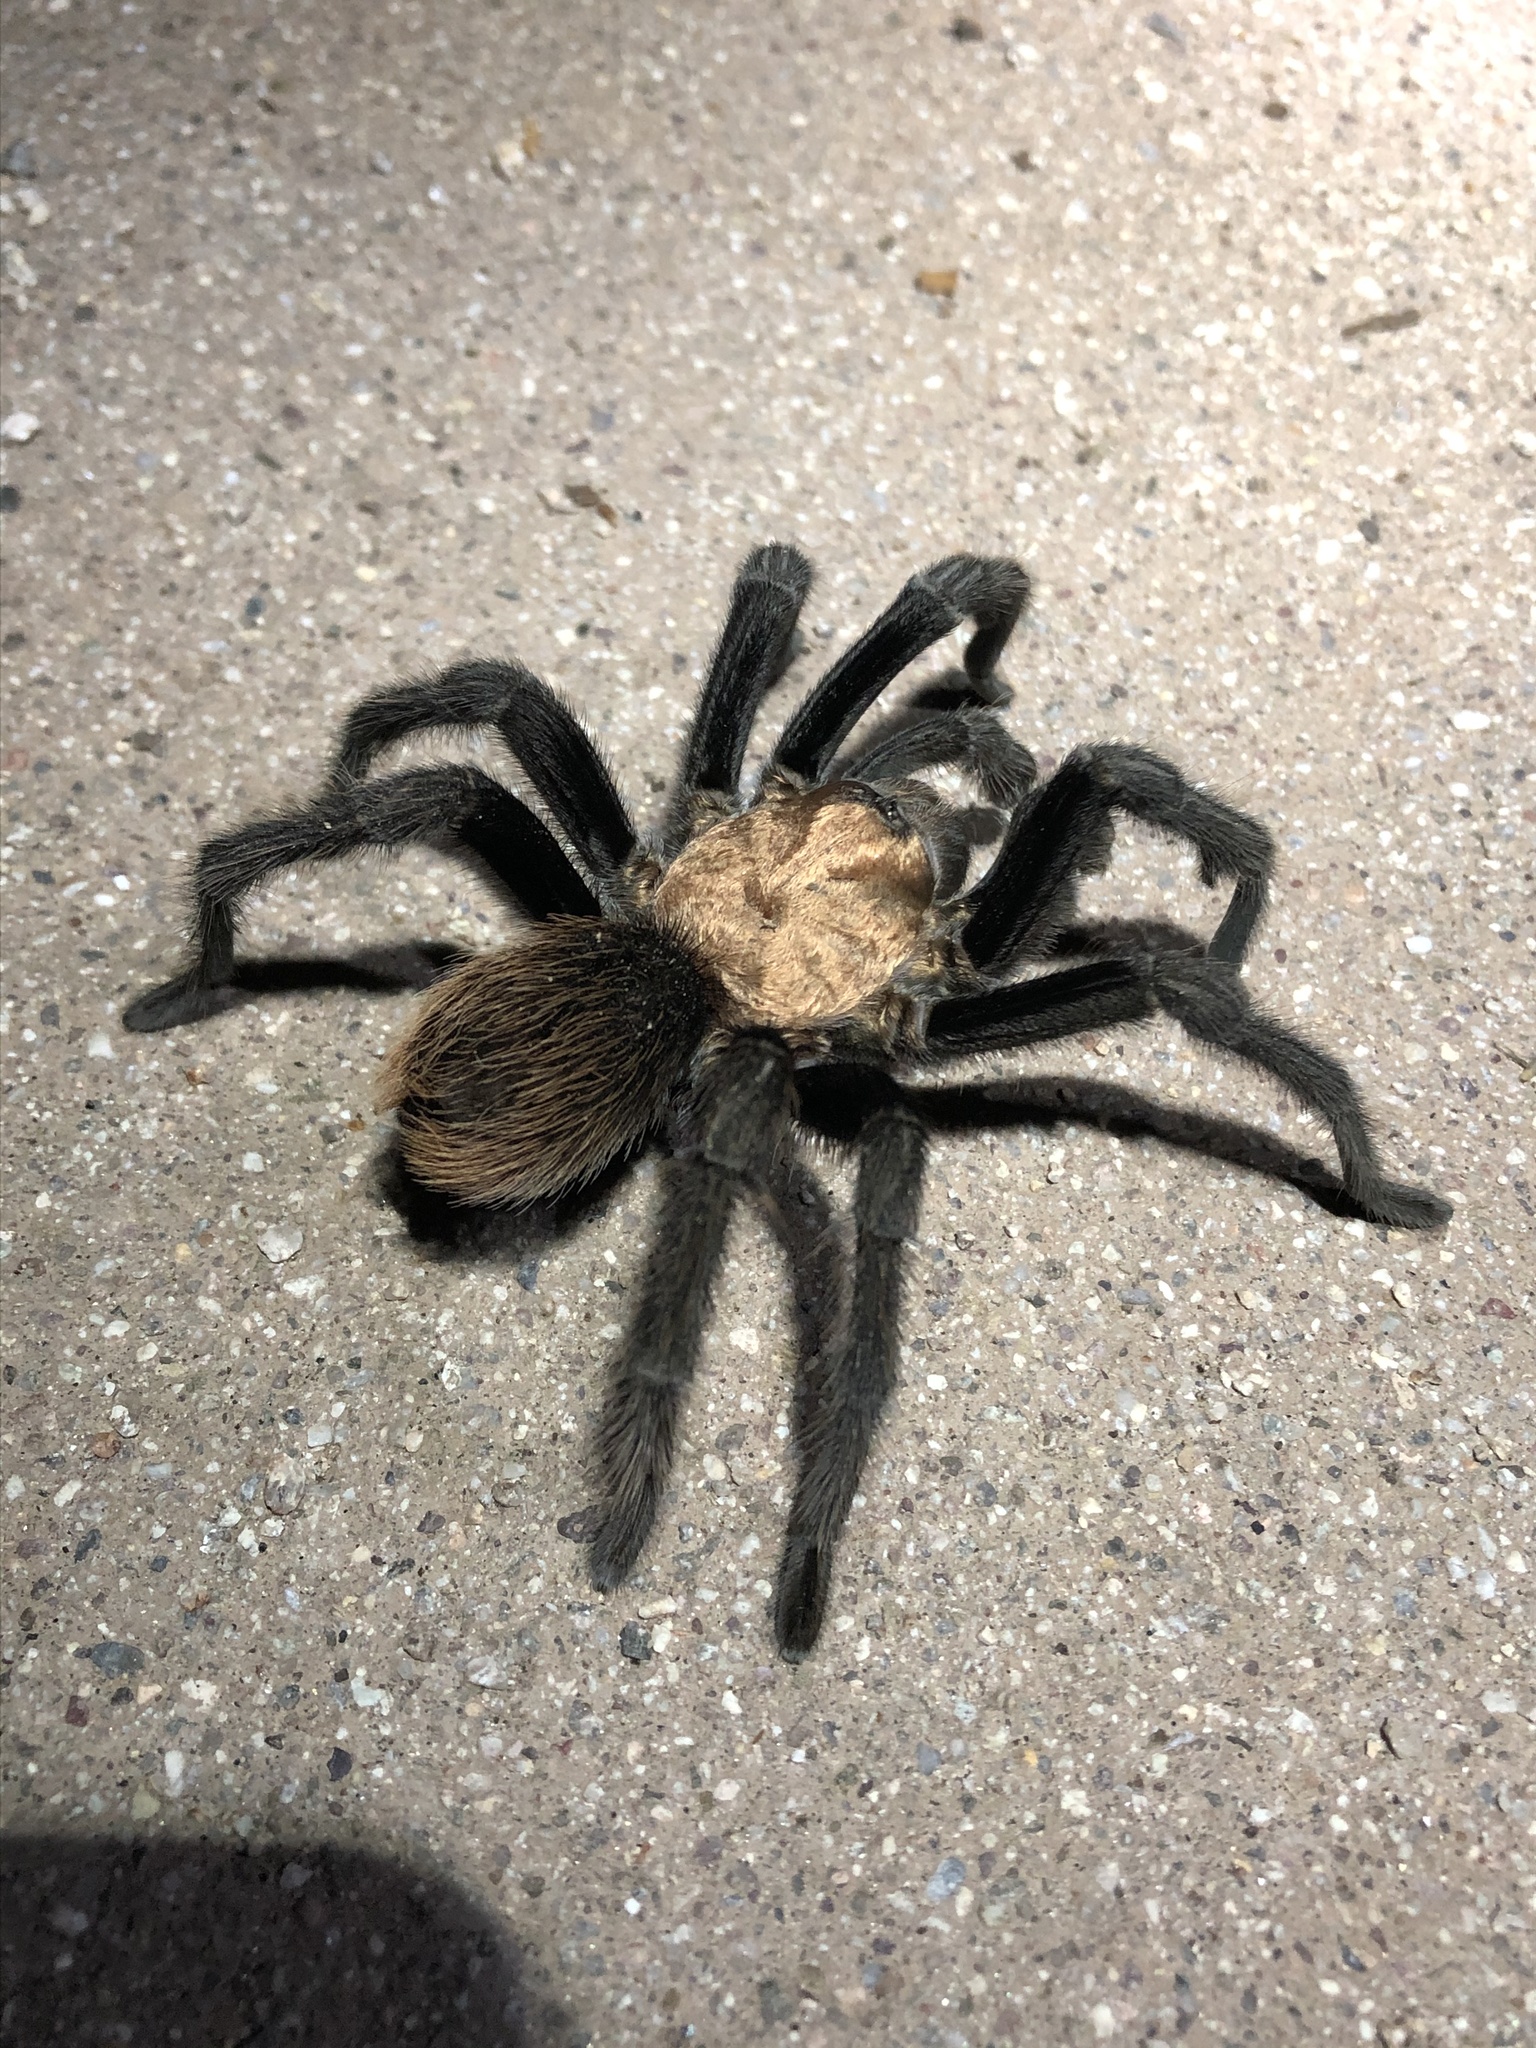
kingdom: Animalia
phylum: Arthropoda
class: Arachnida
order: Araneae
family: Theraphosidae
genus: Aphonopelma
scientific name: Aphonopelma chalcodes
